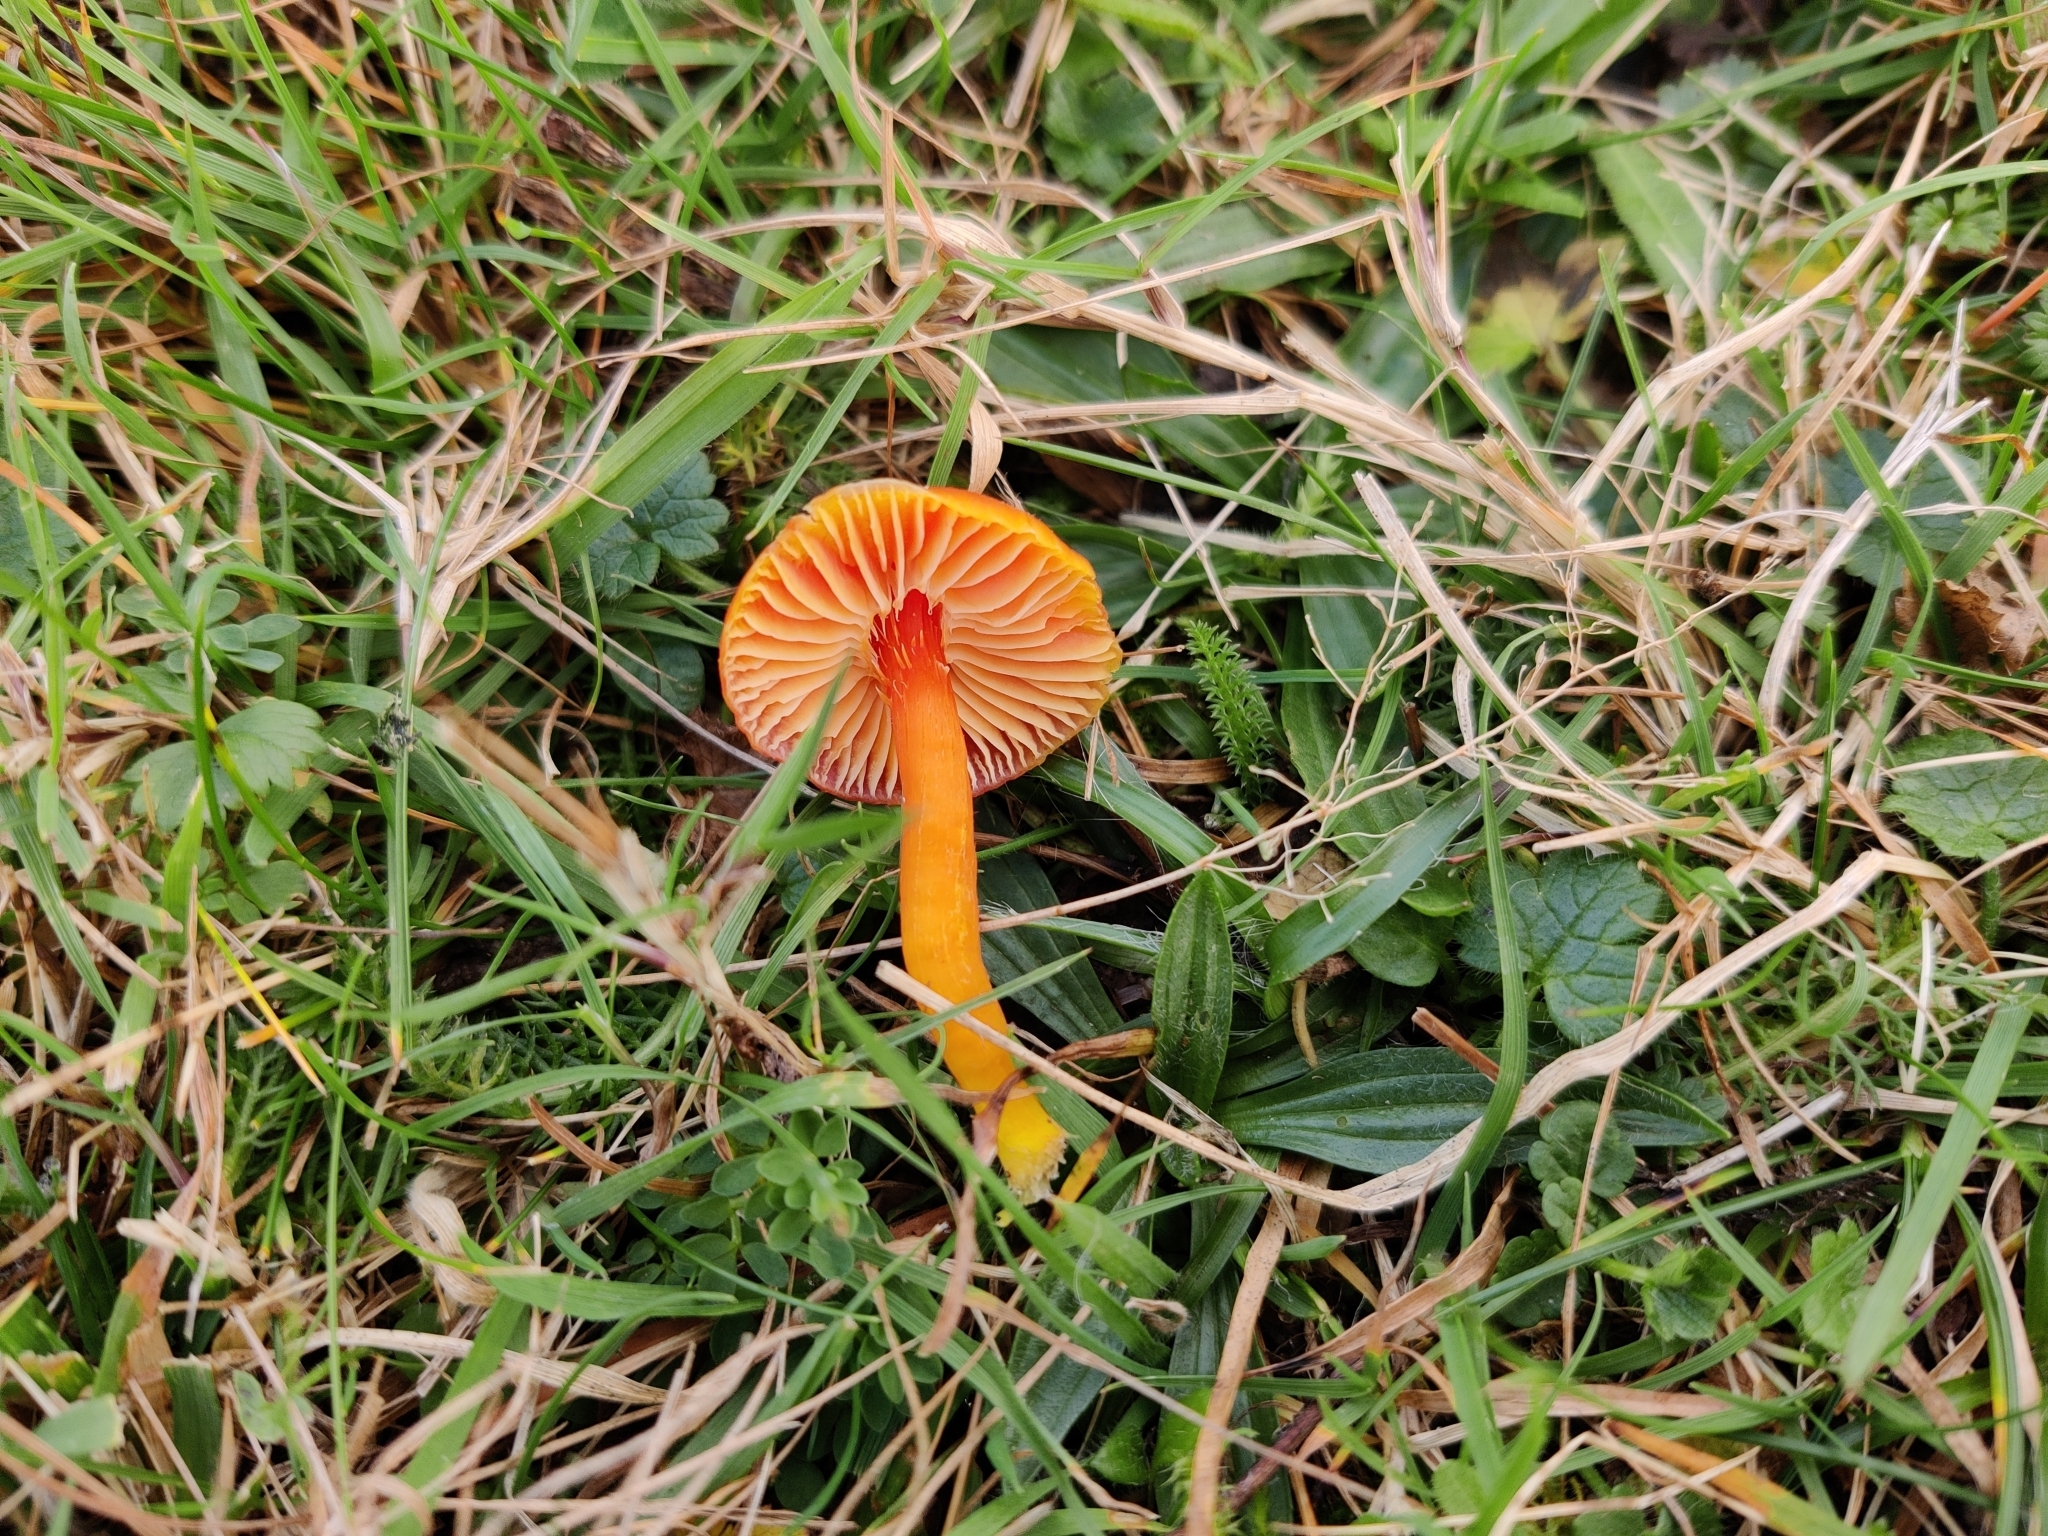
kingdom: Fungi
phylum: Basidiomycota
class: Agaricomycetes
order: Agaricales
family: Hygrophoraceae
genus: Hygrocybe
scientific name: Hygrocybe coccinea
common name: Scarlet hood
